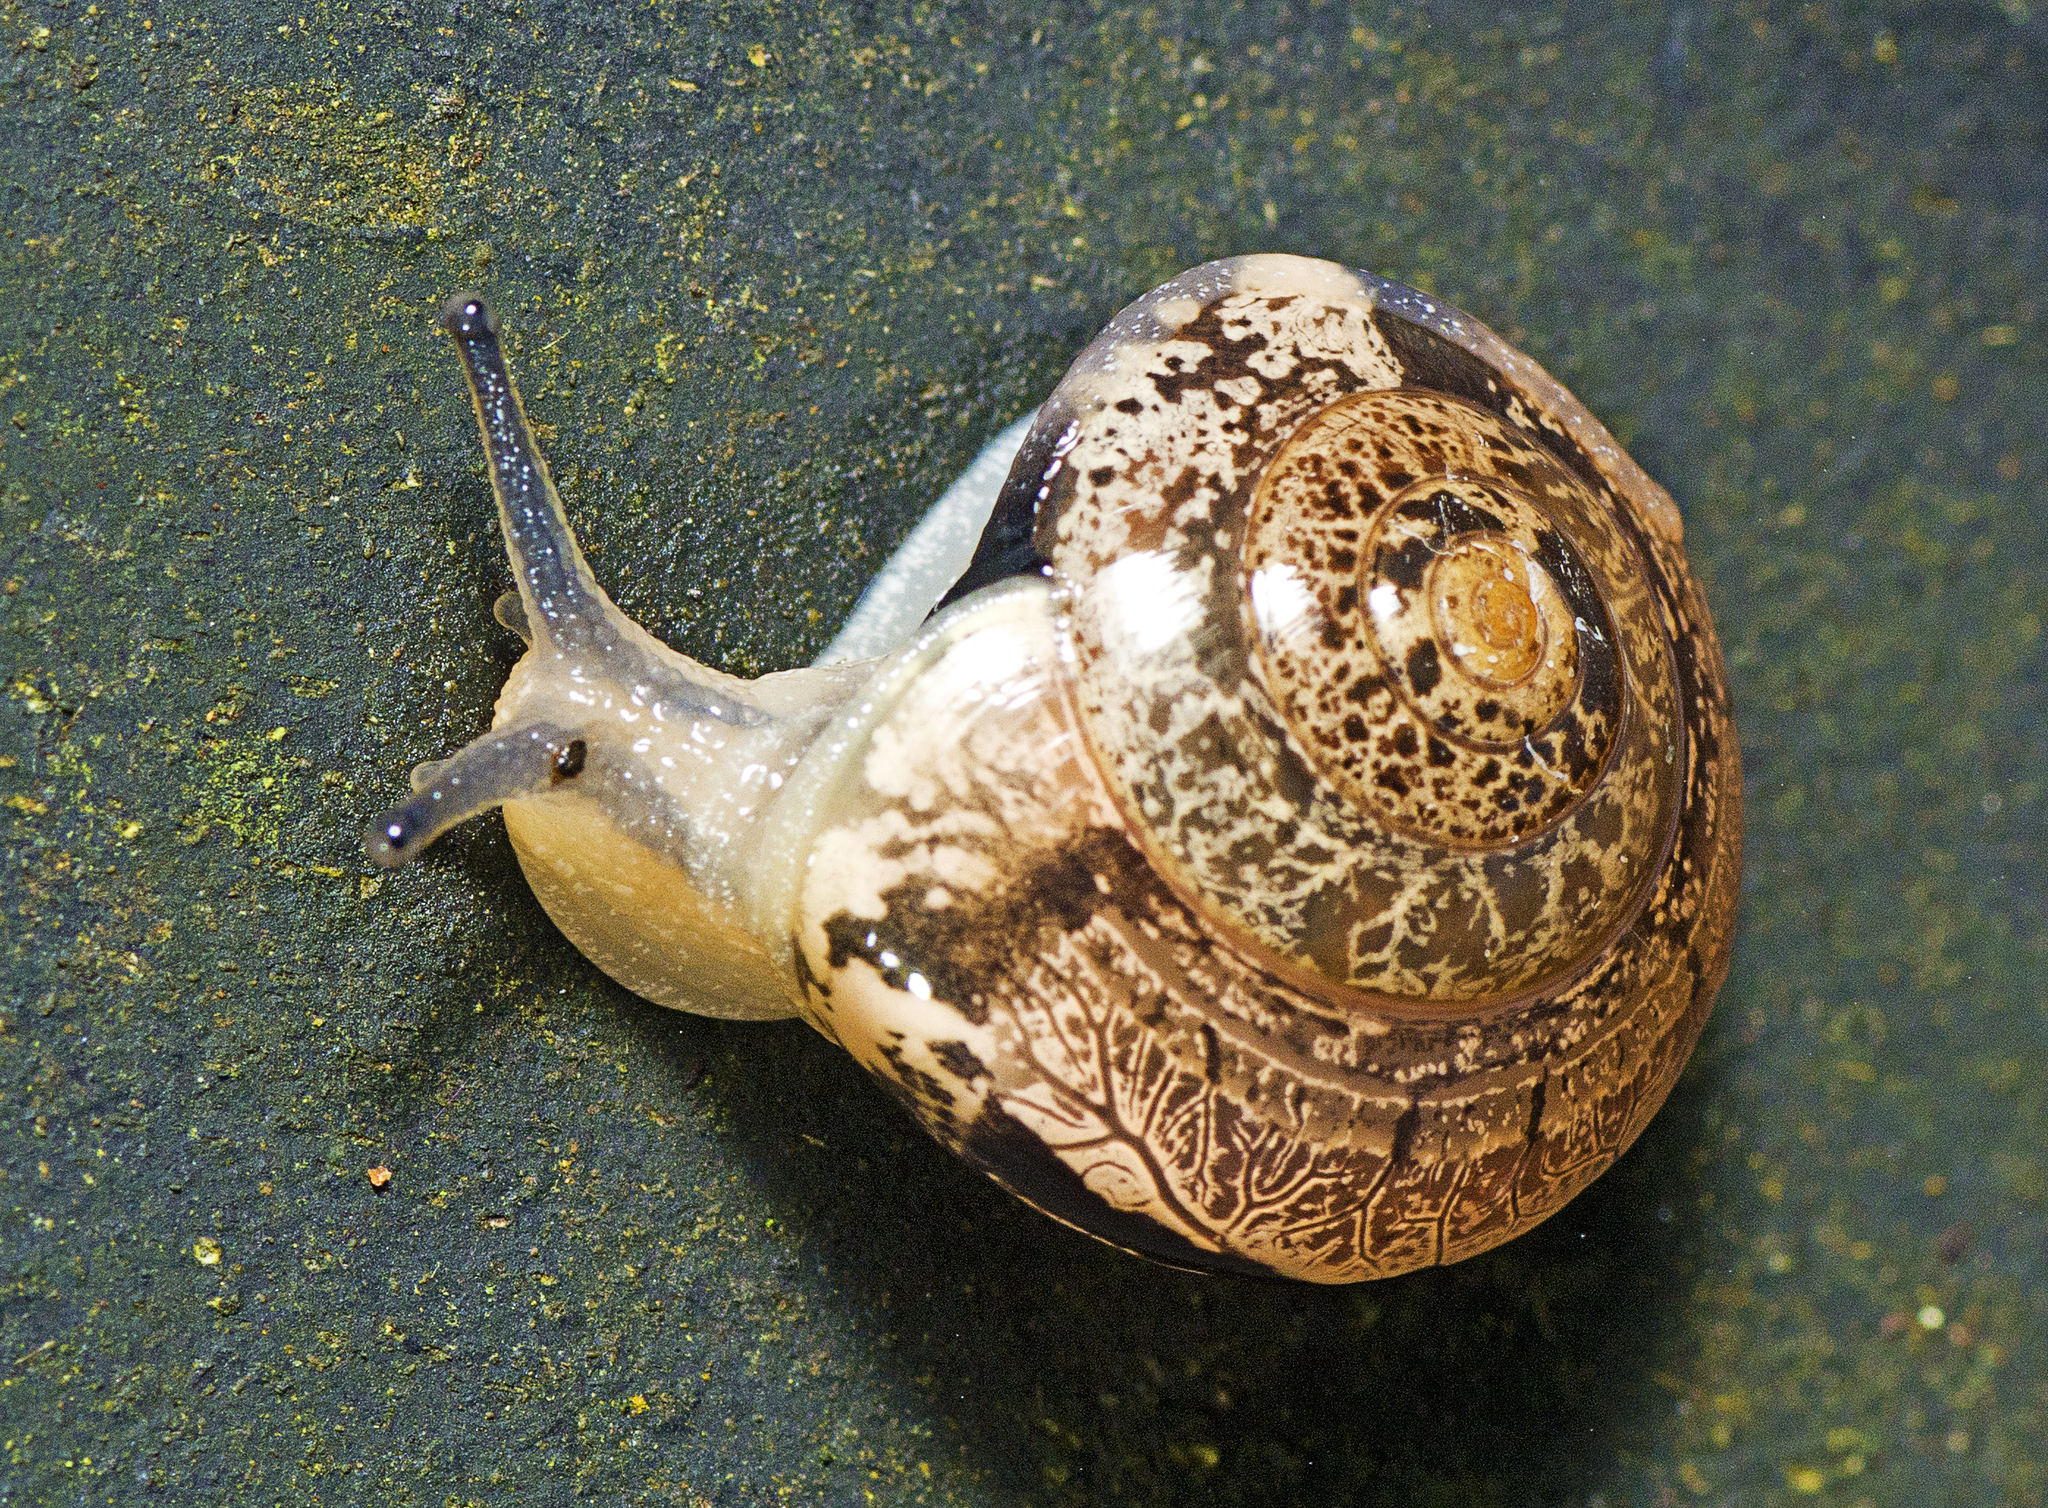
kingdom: Animalia
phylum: Mollusca
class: Gastropoda
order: Stylommatophora
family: Helicarionidae
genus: Nitor
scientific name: Nitor pudibundus
